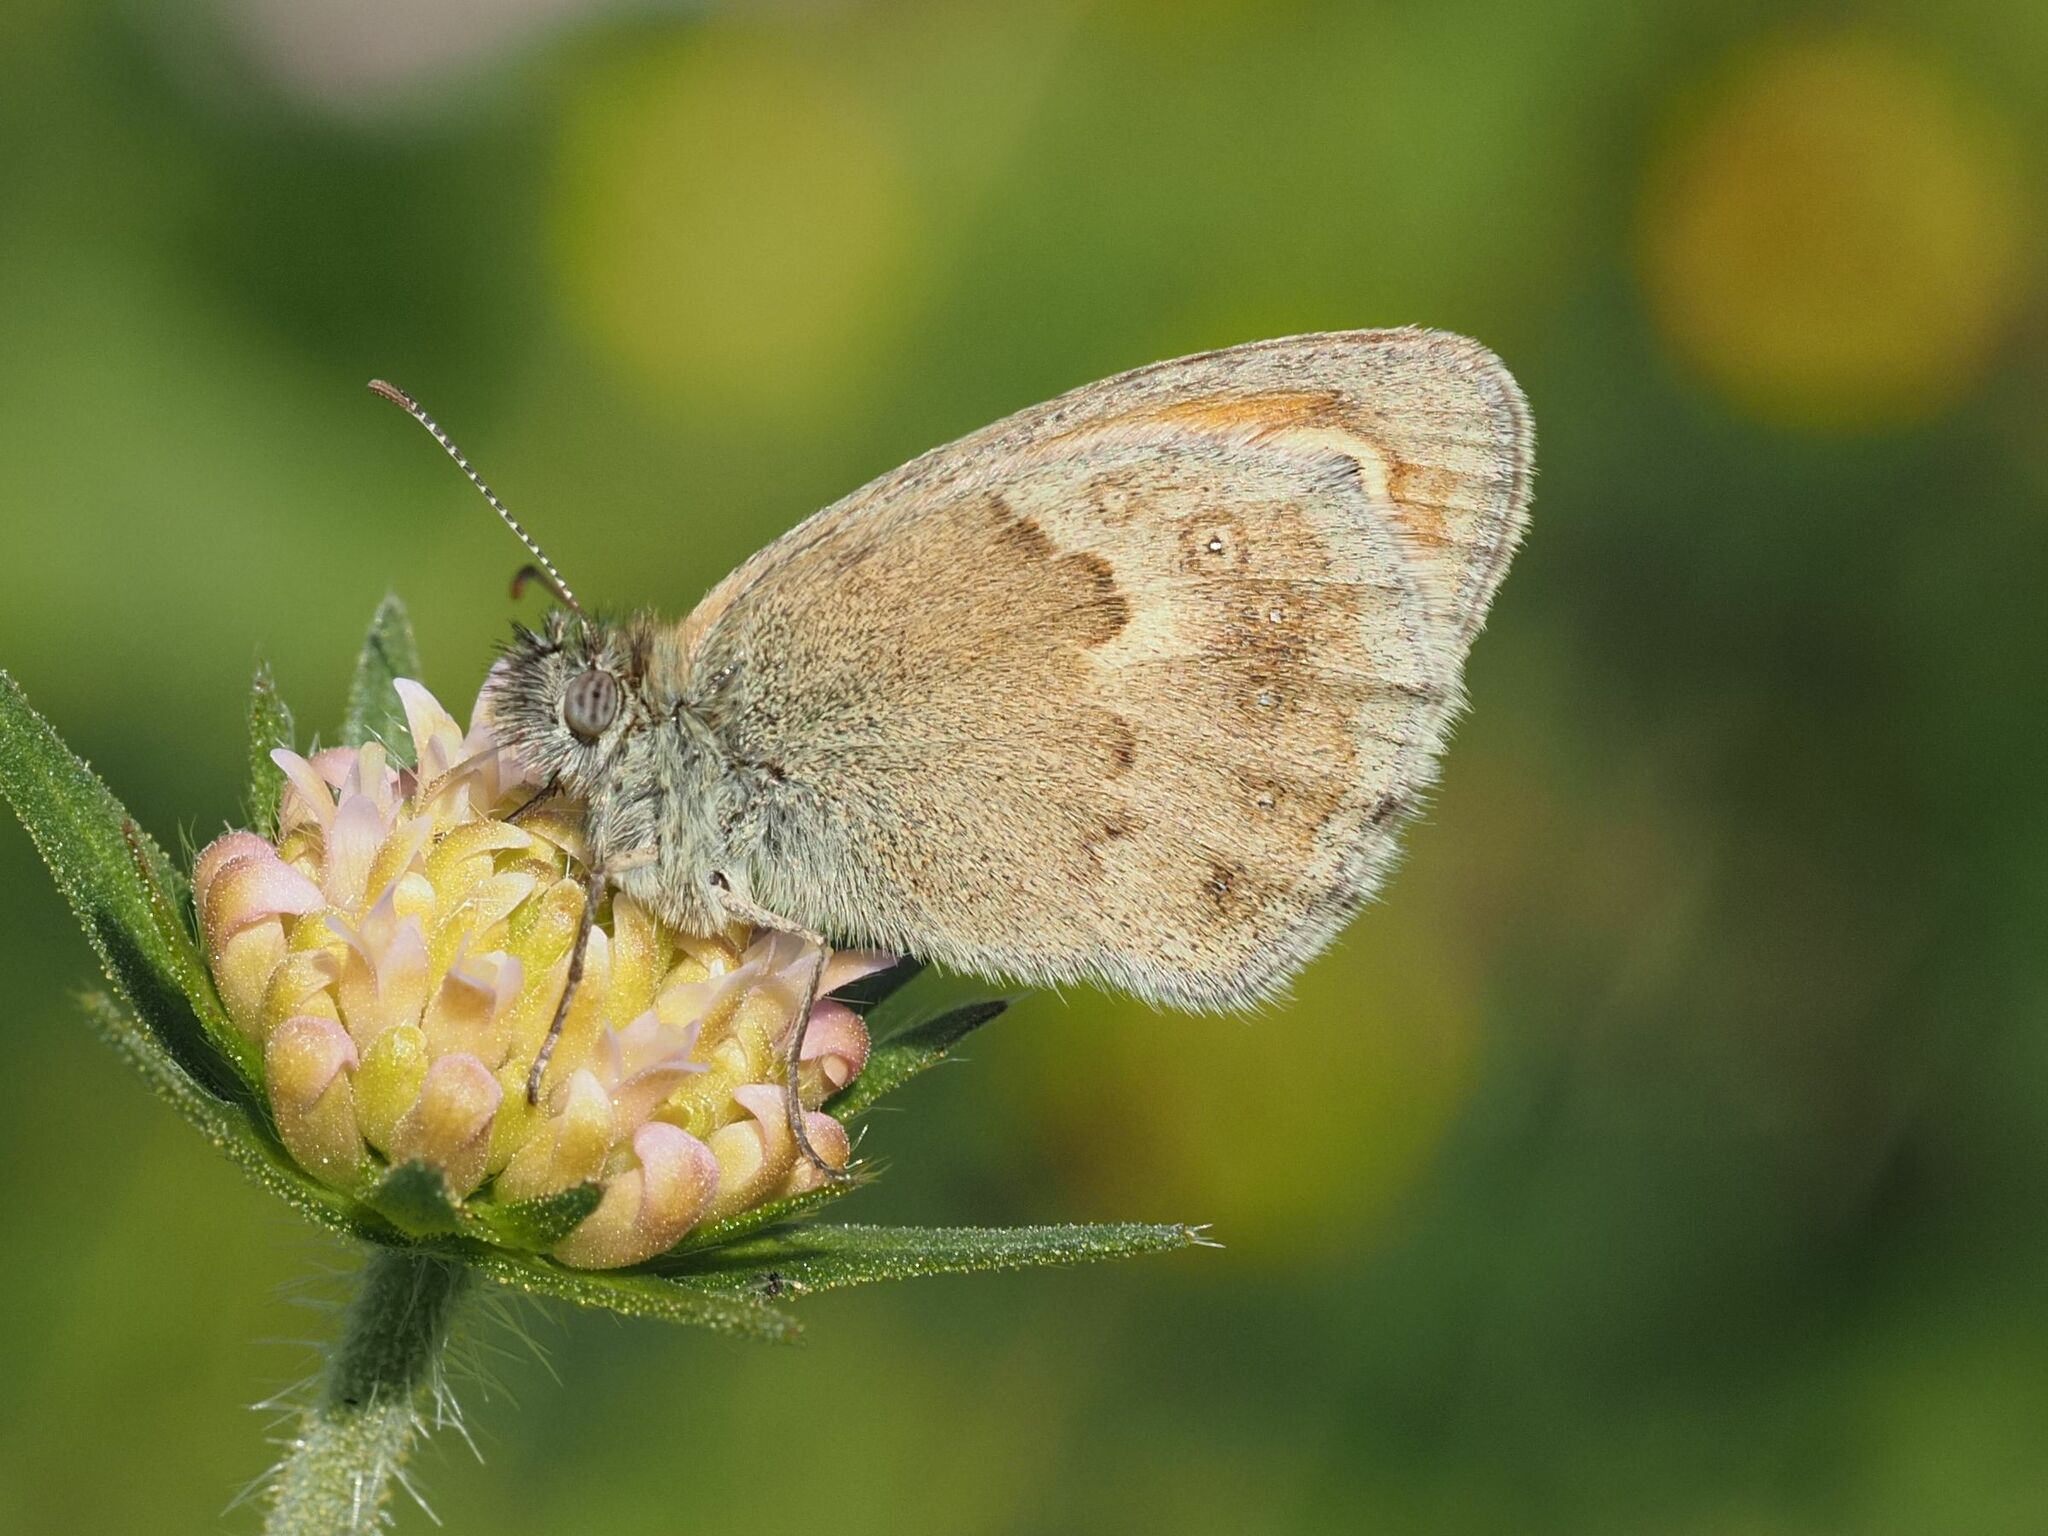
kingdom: Animalia
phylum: Arthropoda
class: Insecta
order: Lepidoptera
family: Nymphalidae
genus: Coenonympha
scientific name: Coenonympha pamphilus
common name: Small heath
